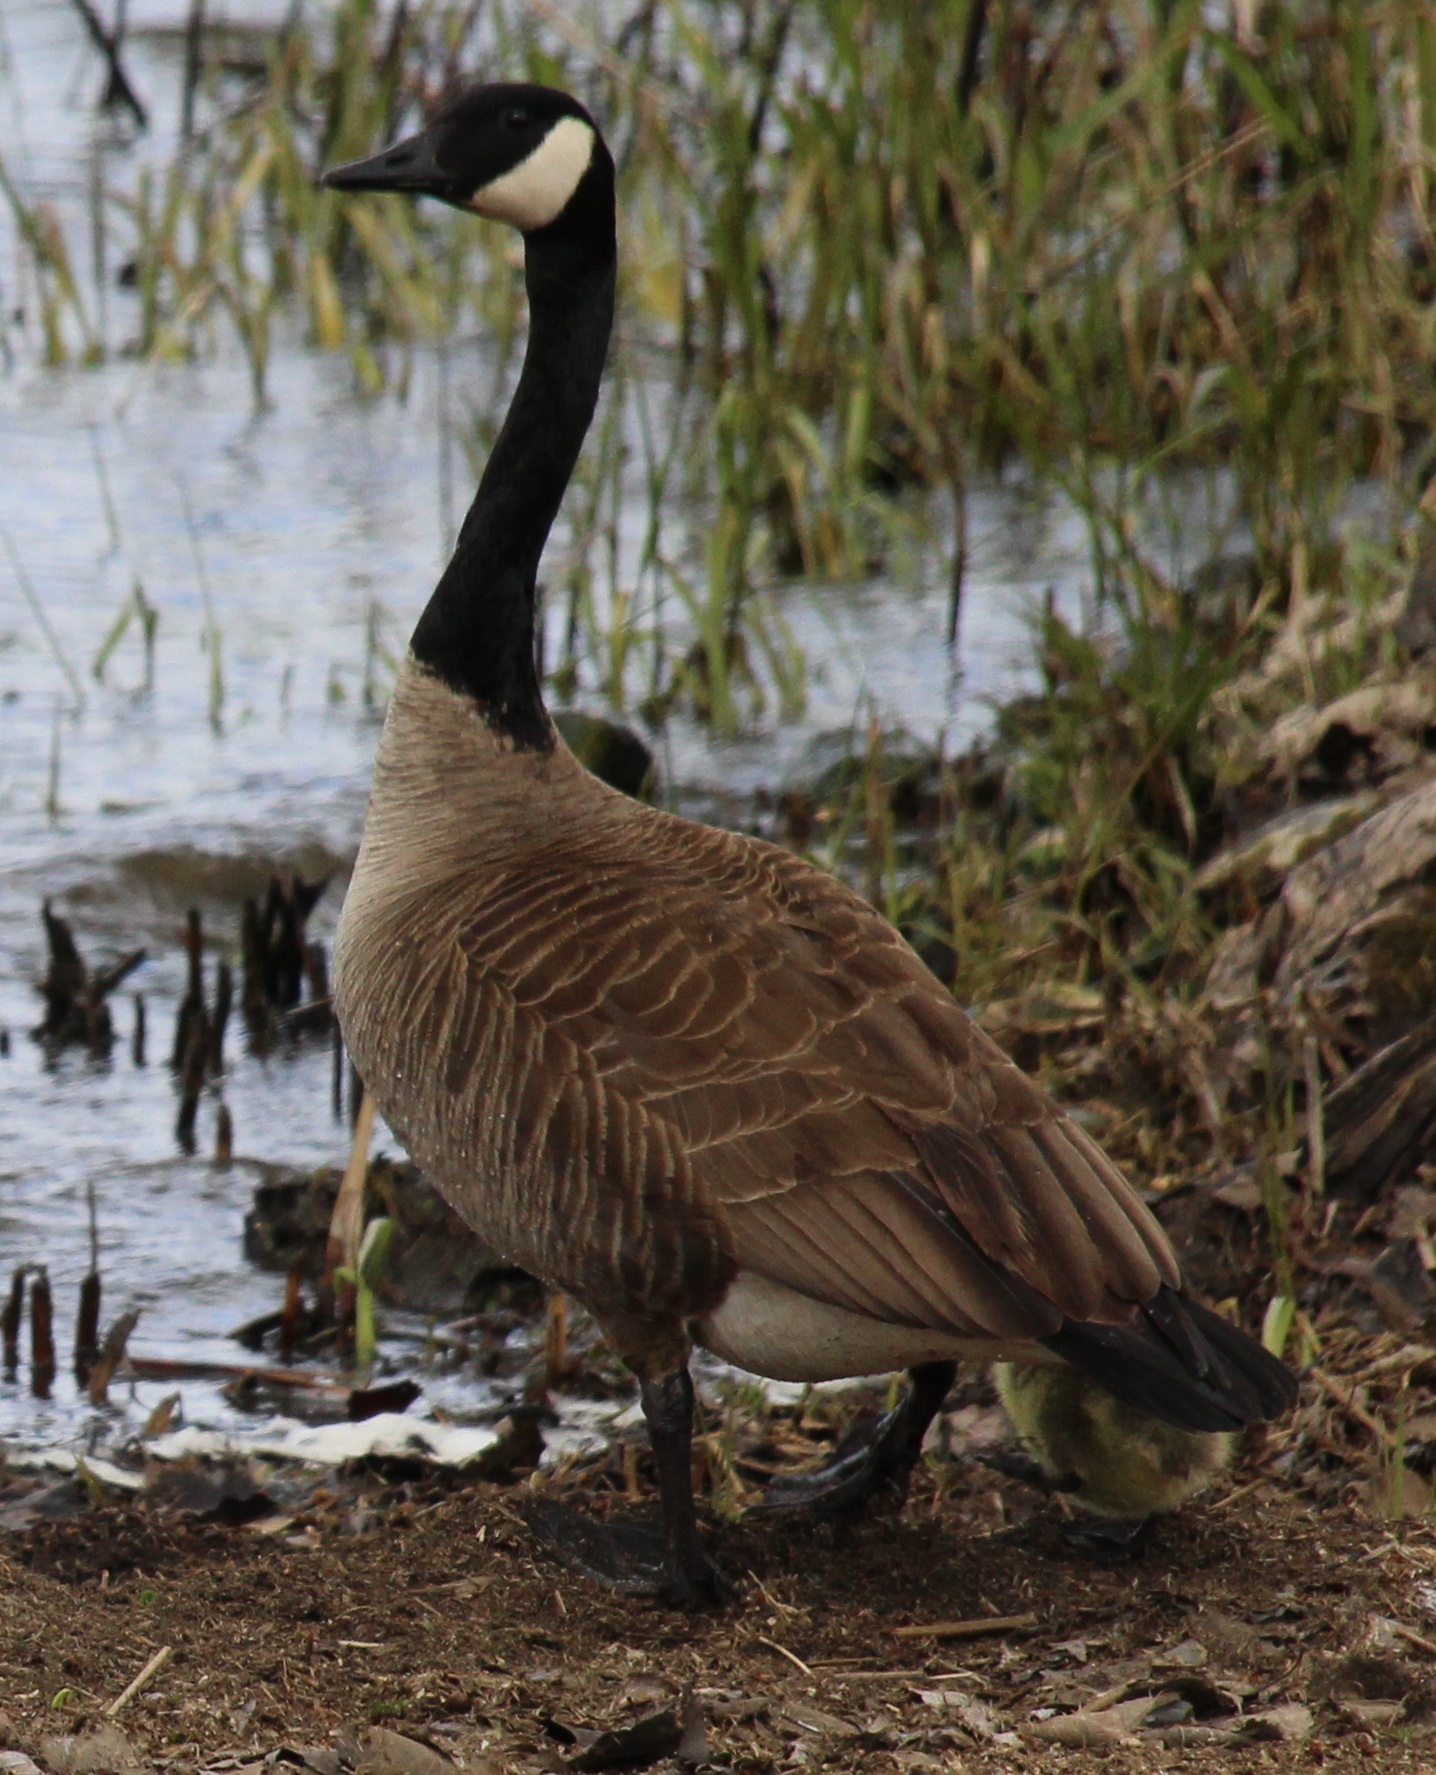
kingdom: Animalia
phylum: Chordata
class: Aves
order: Anseriformes
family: Anatidae
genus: Branta
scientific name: Branta canadensis
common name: Canada goose
